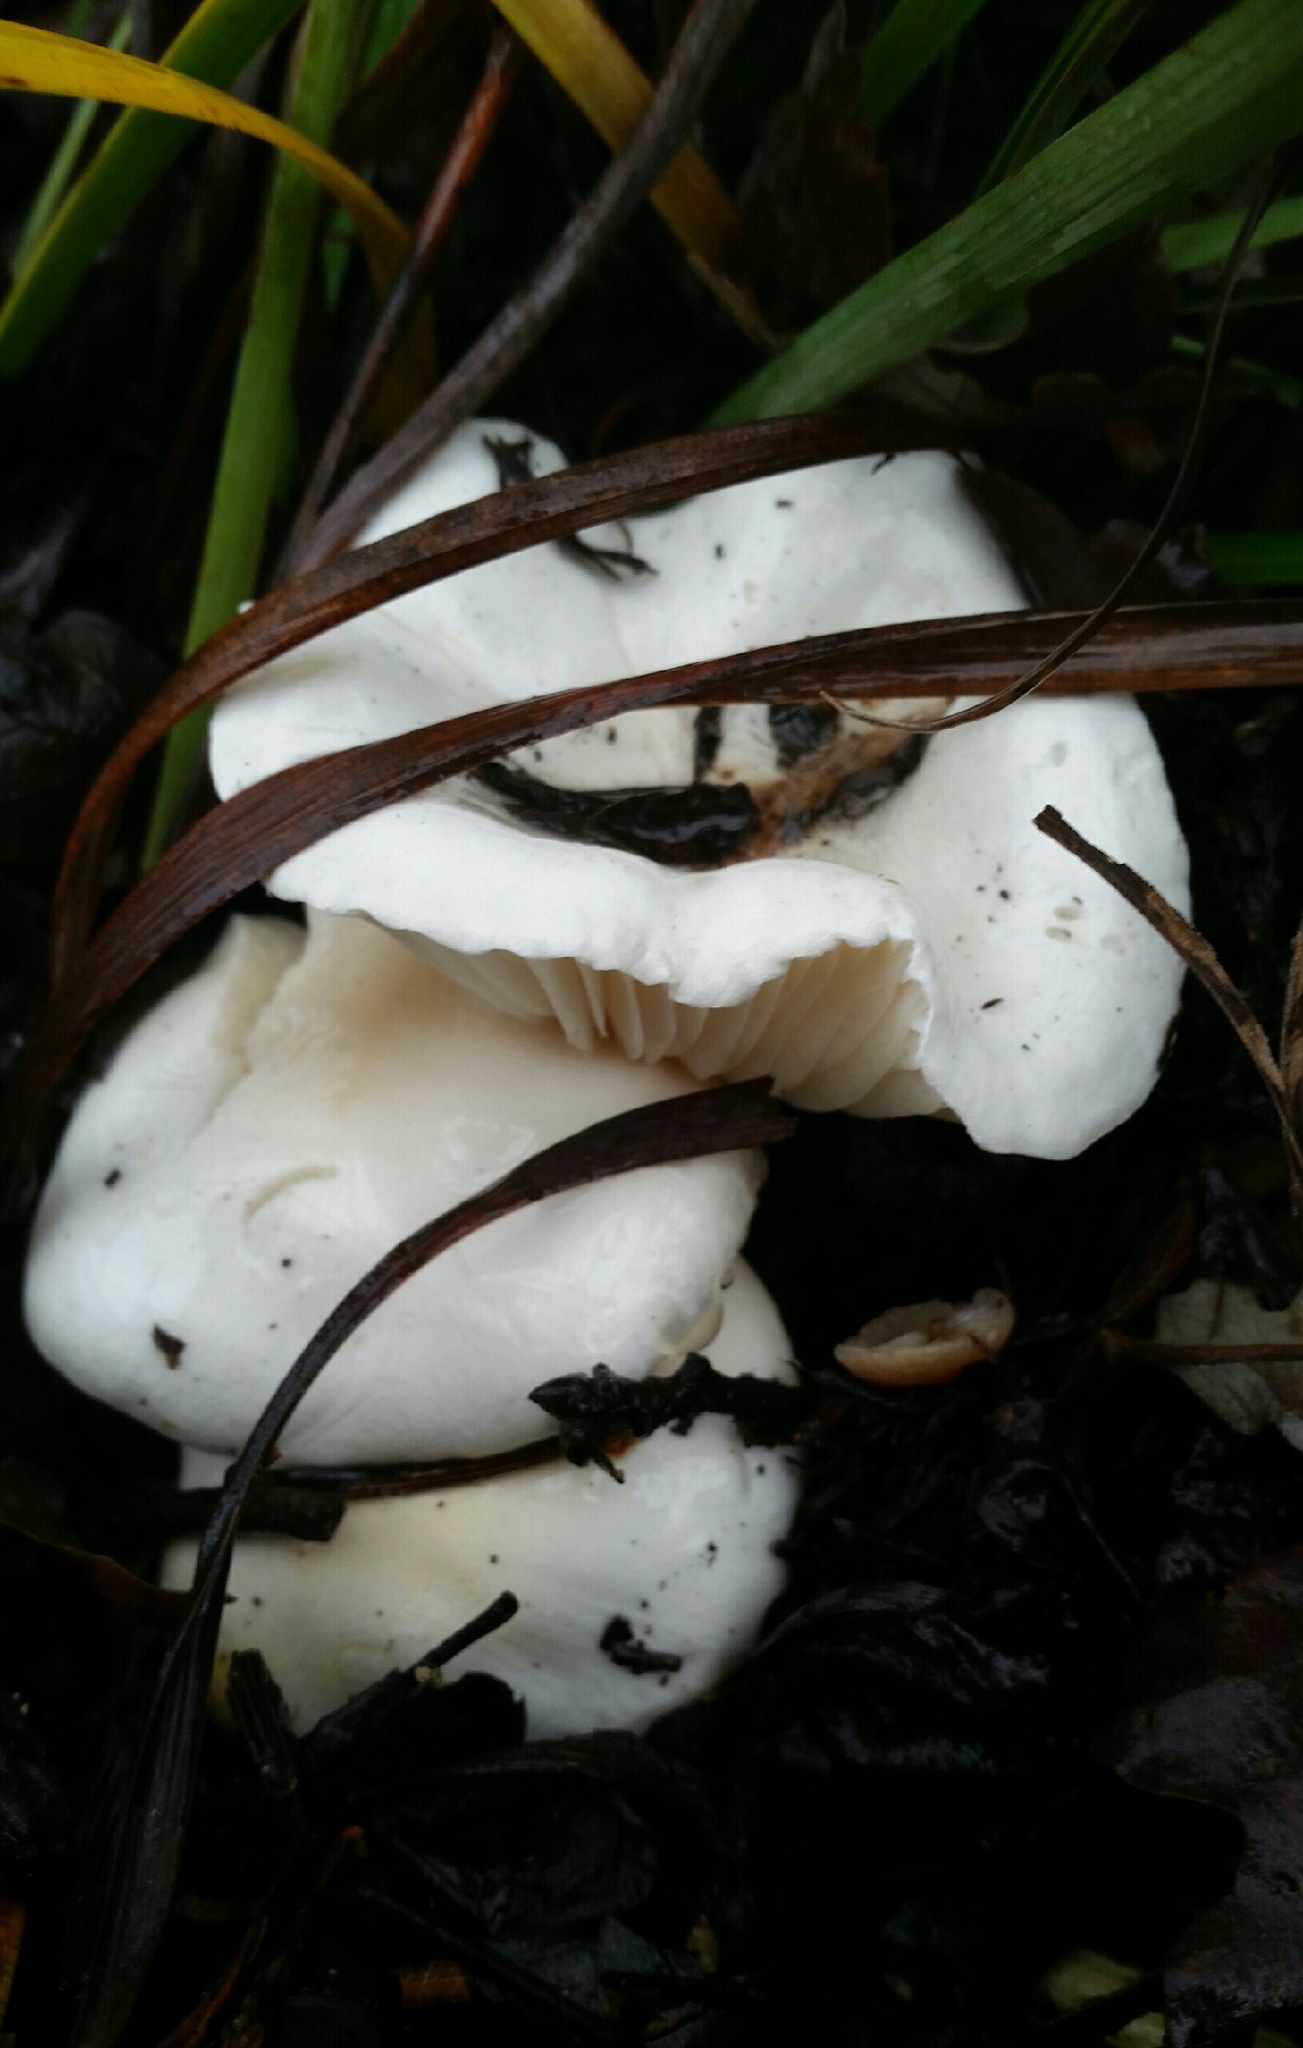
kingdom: Fungi
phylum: Basidiomycota
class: Agaricomycetes
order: Agaricales
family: Hygrophoraceae
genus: Hygrophorus
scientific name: Hygrophorus eburneus
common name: Ivory wax-cap
